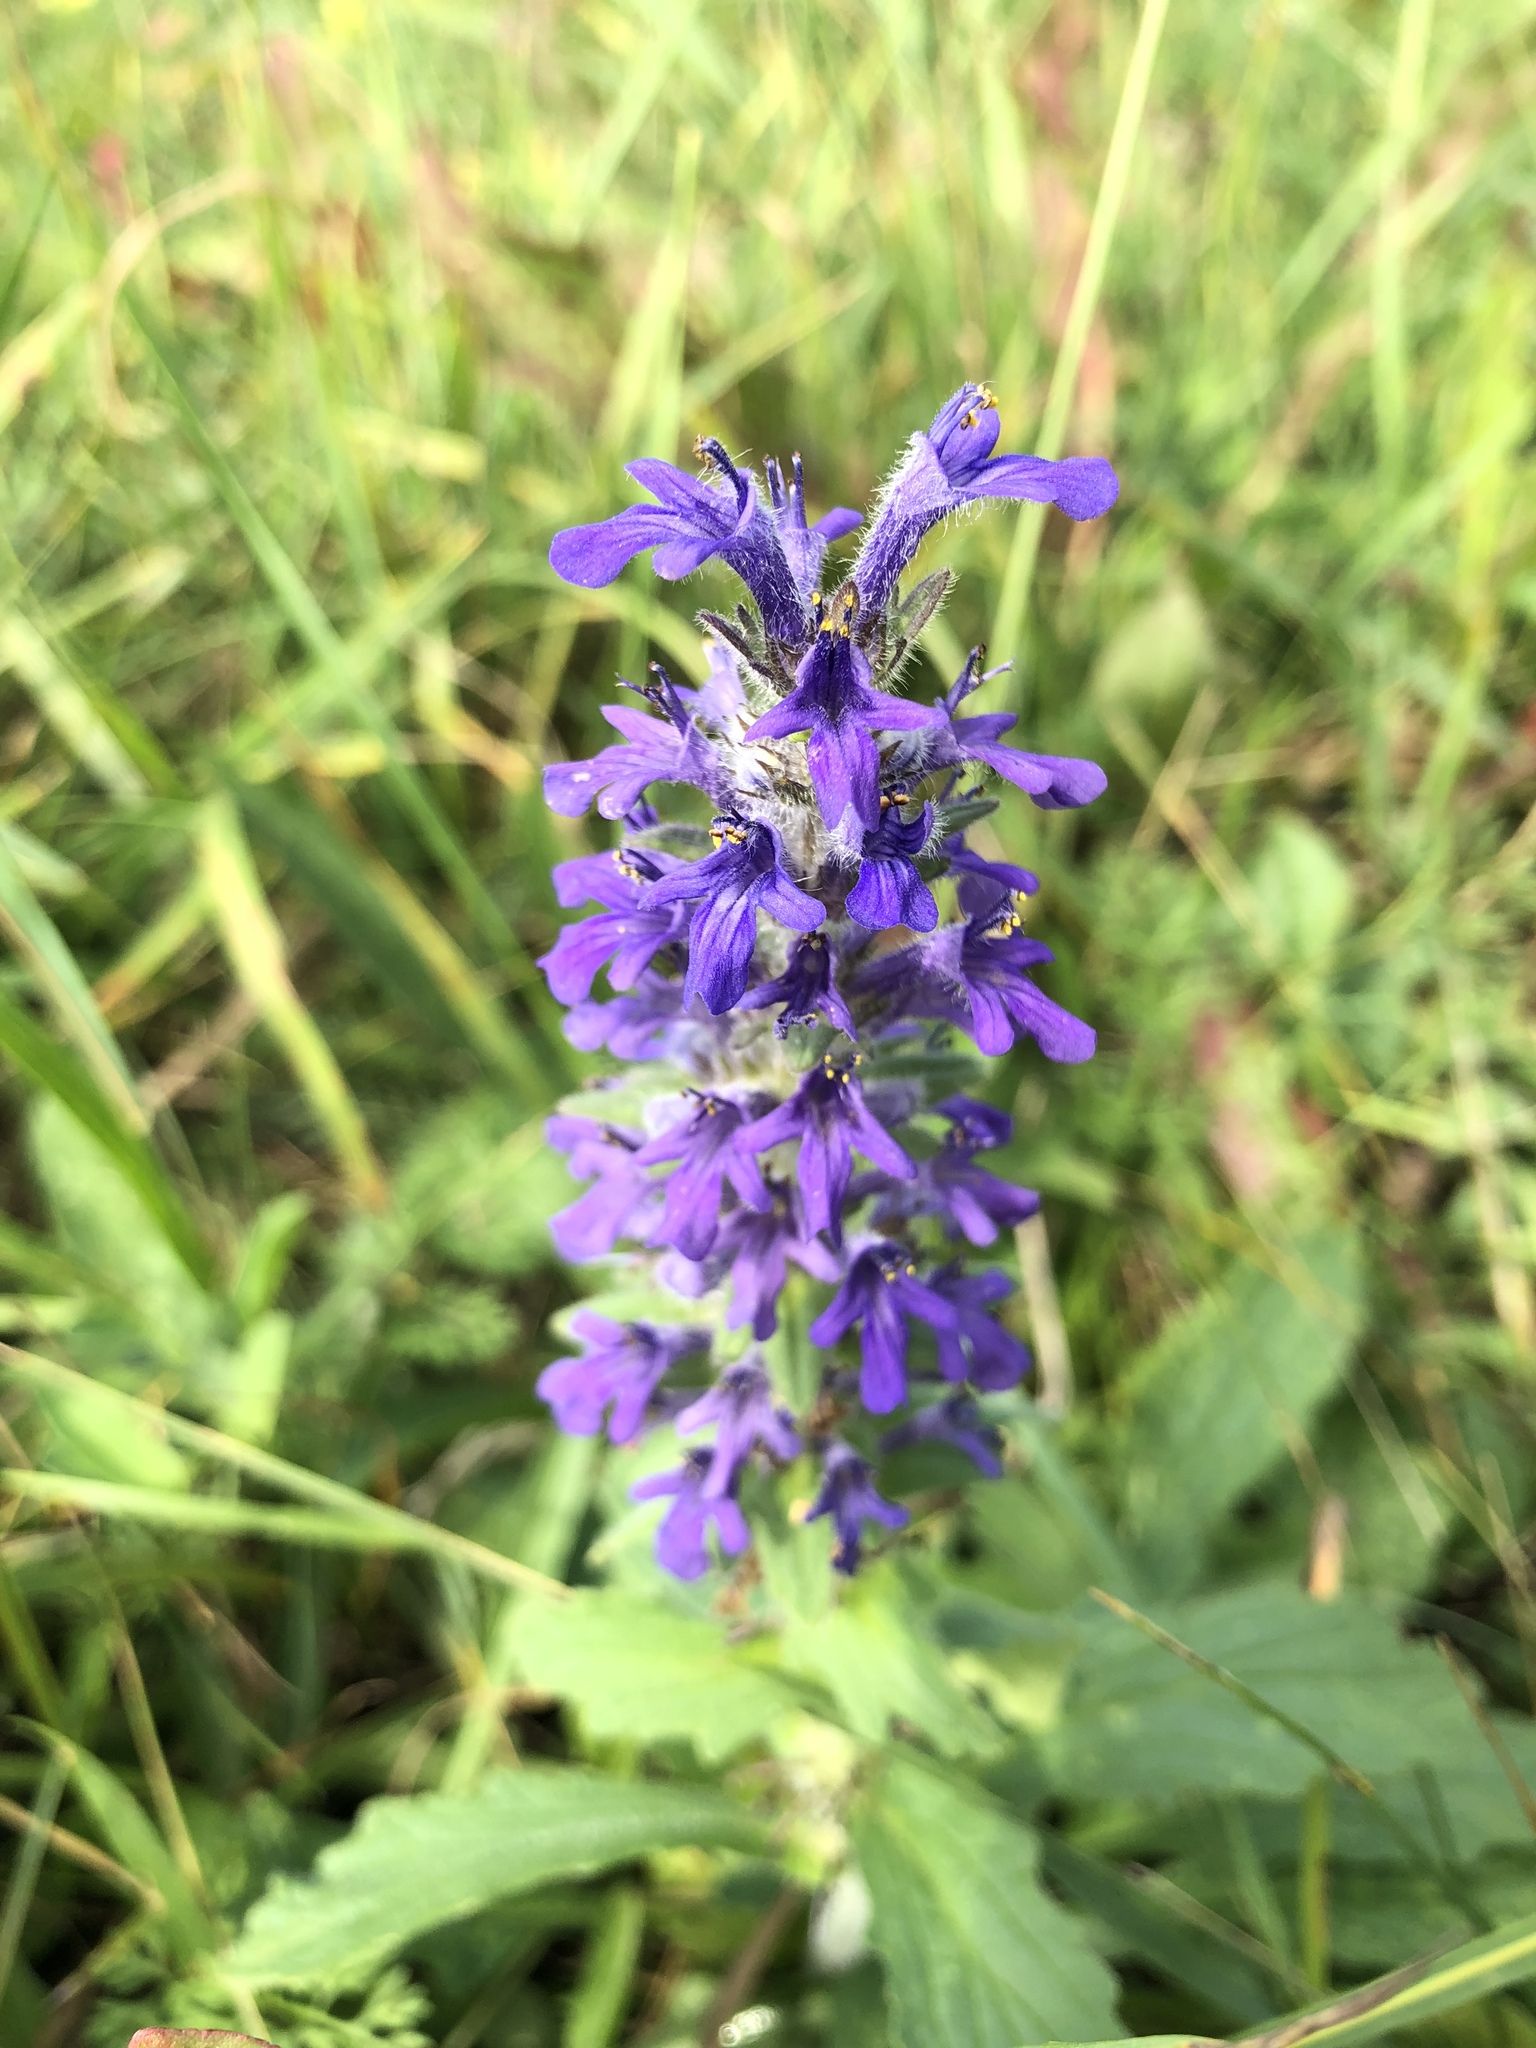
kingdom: Plantae
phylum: Tracheophyta
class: Magnoliopsida
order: Lamiales
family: Lamiaceae
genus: Ajuga
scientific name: Ajuga genevensis
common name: Blue bugle
